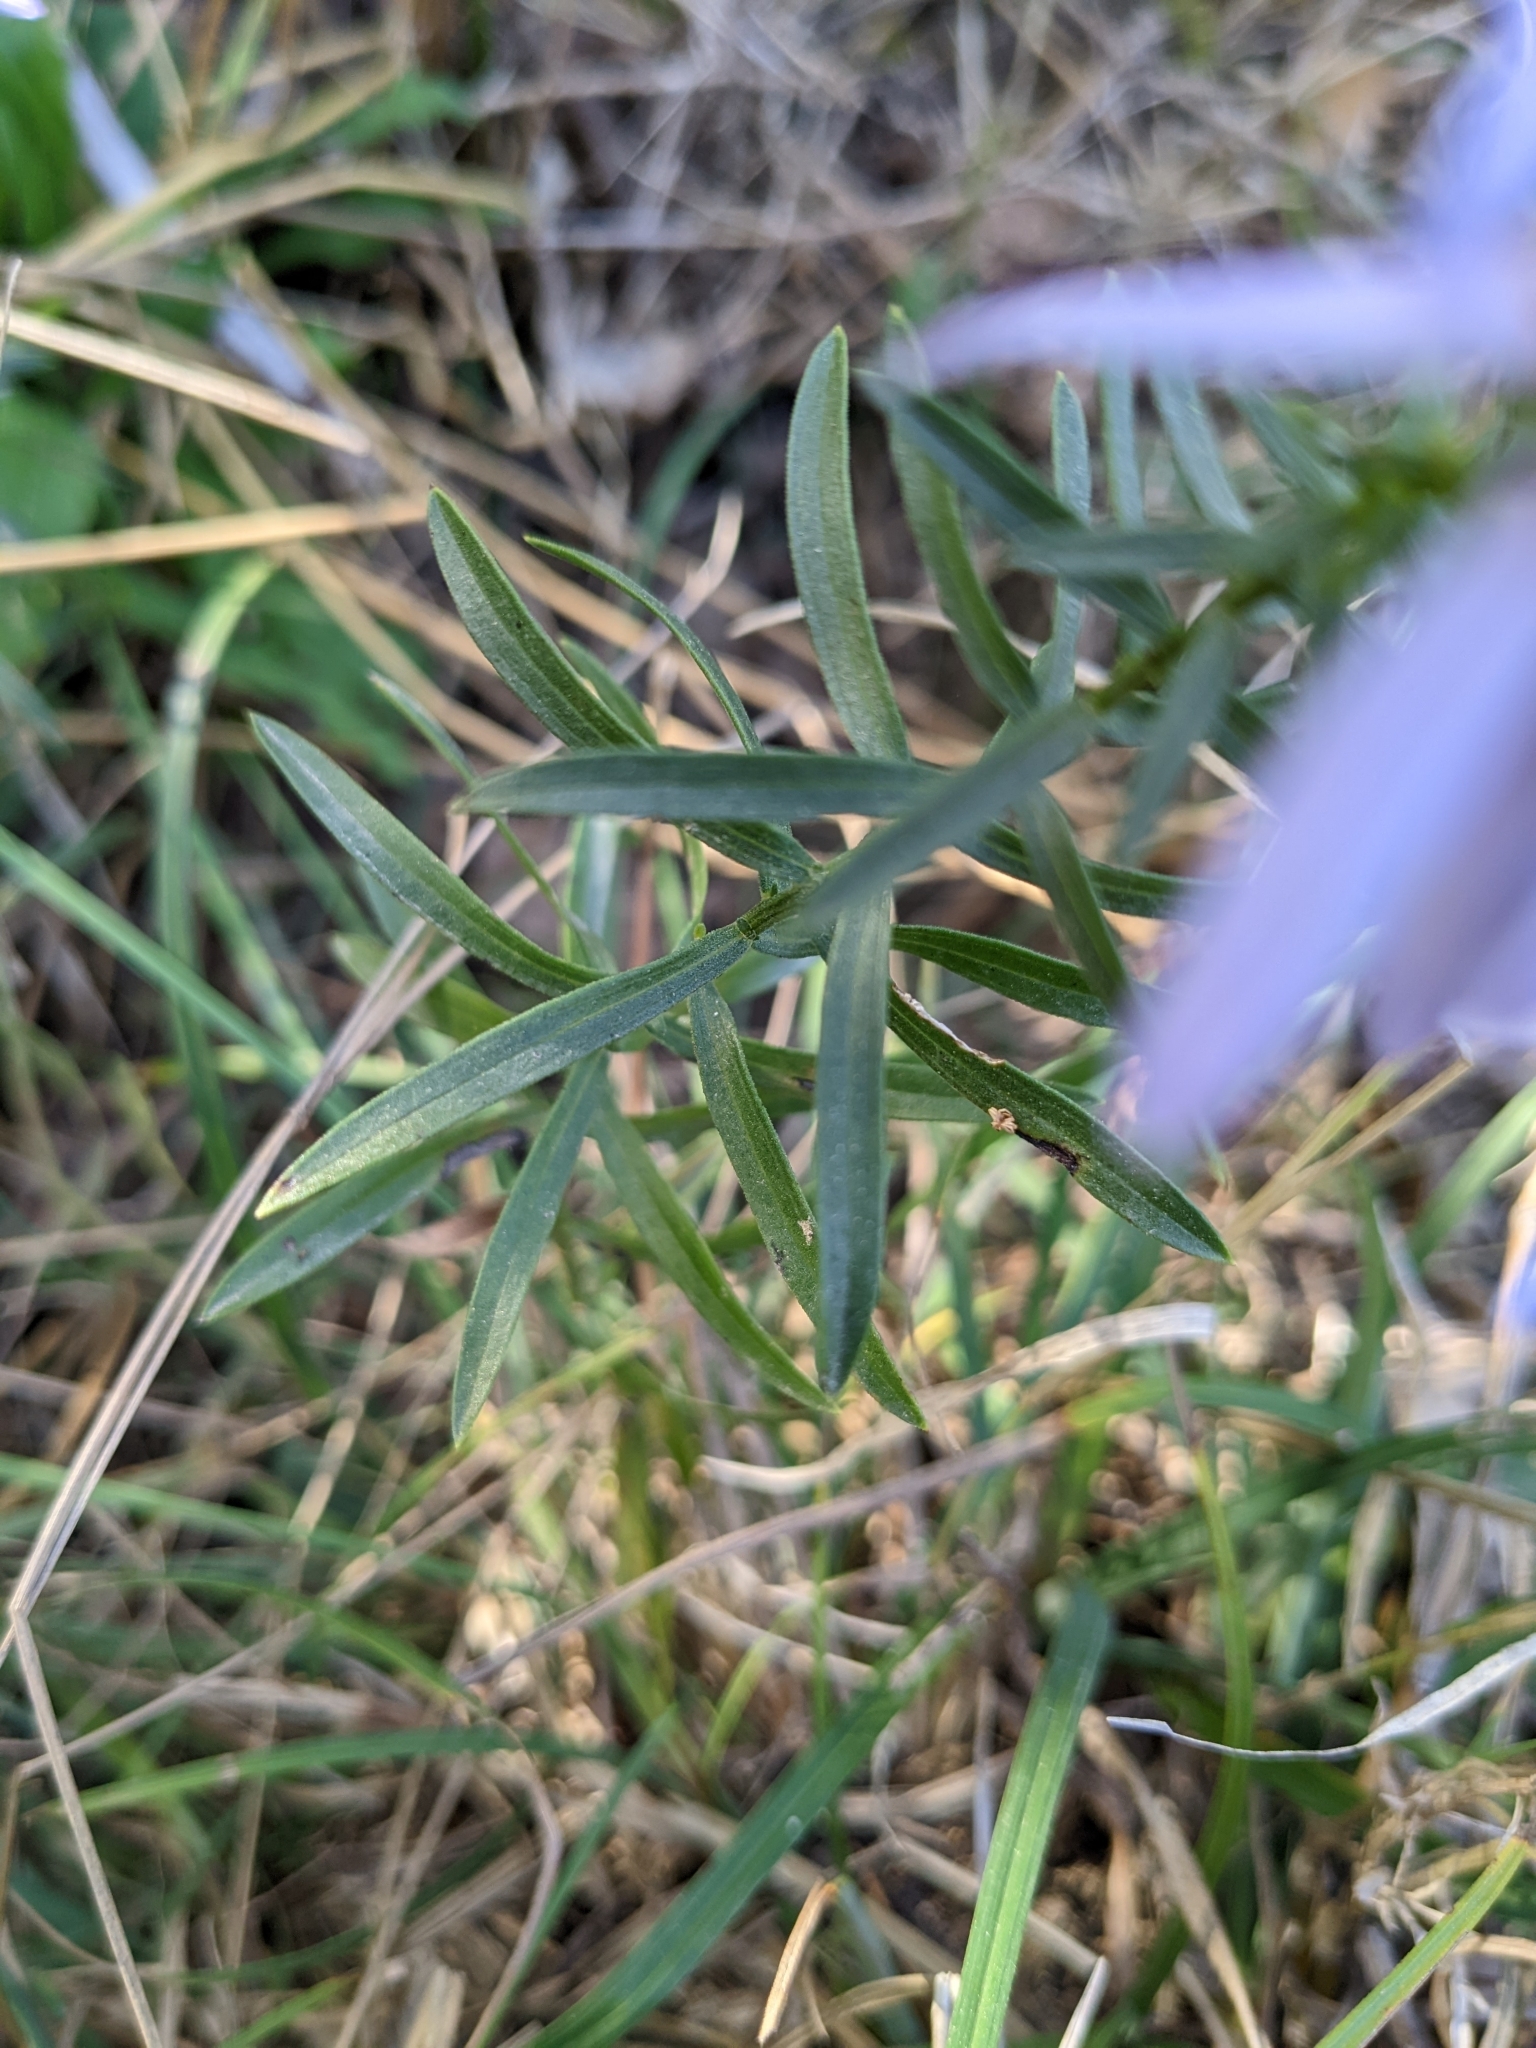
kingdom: Plantae
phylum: Tracheophyta
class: Magnoliopsida
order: Asterales
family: Asteraceae
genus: Galatella
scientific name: Galatella sedifolia
